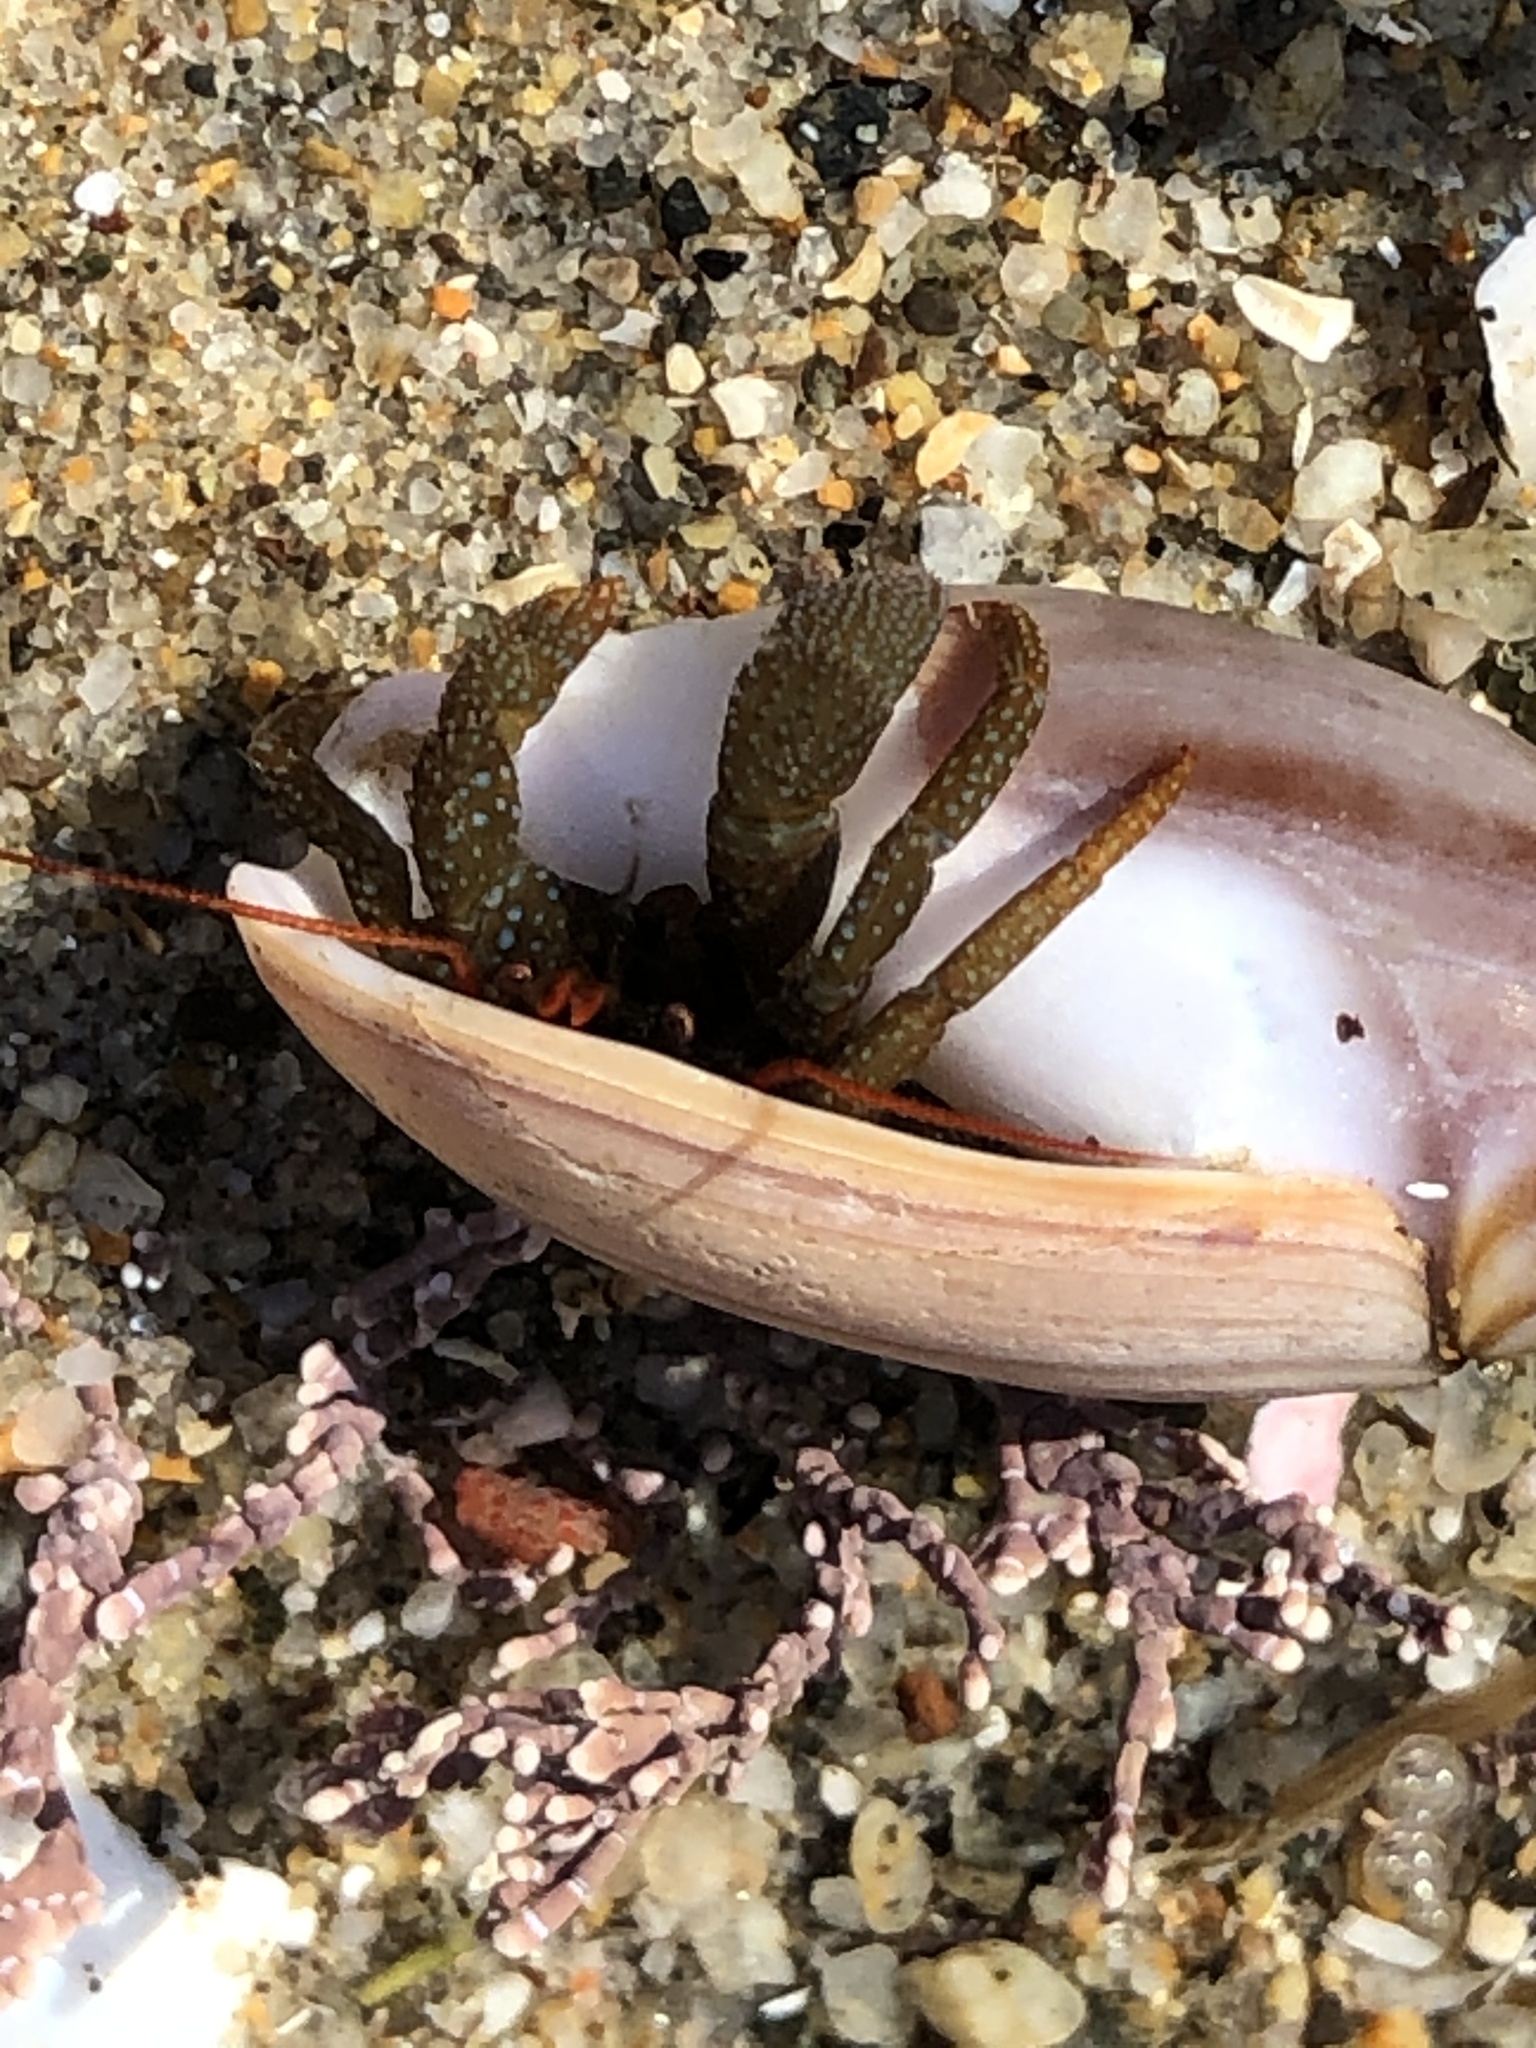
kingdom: Animalia
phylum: Arthropoda
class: Malacostraca
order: Decapoda
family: Paguridae
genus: Pagurus
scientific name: Pagurus granosimanus
